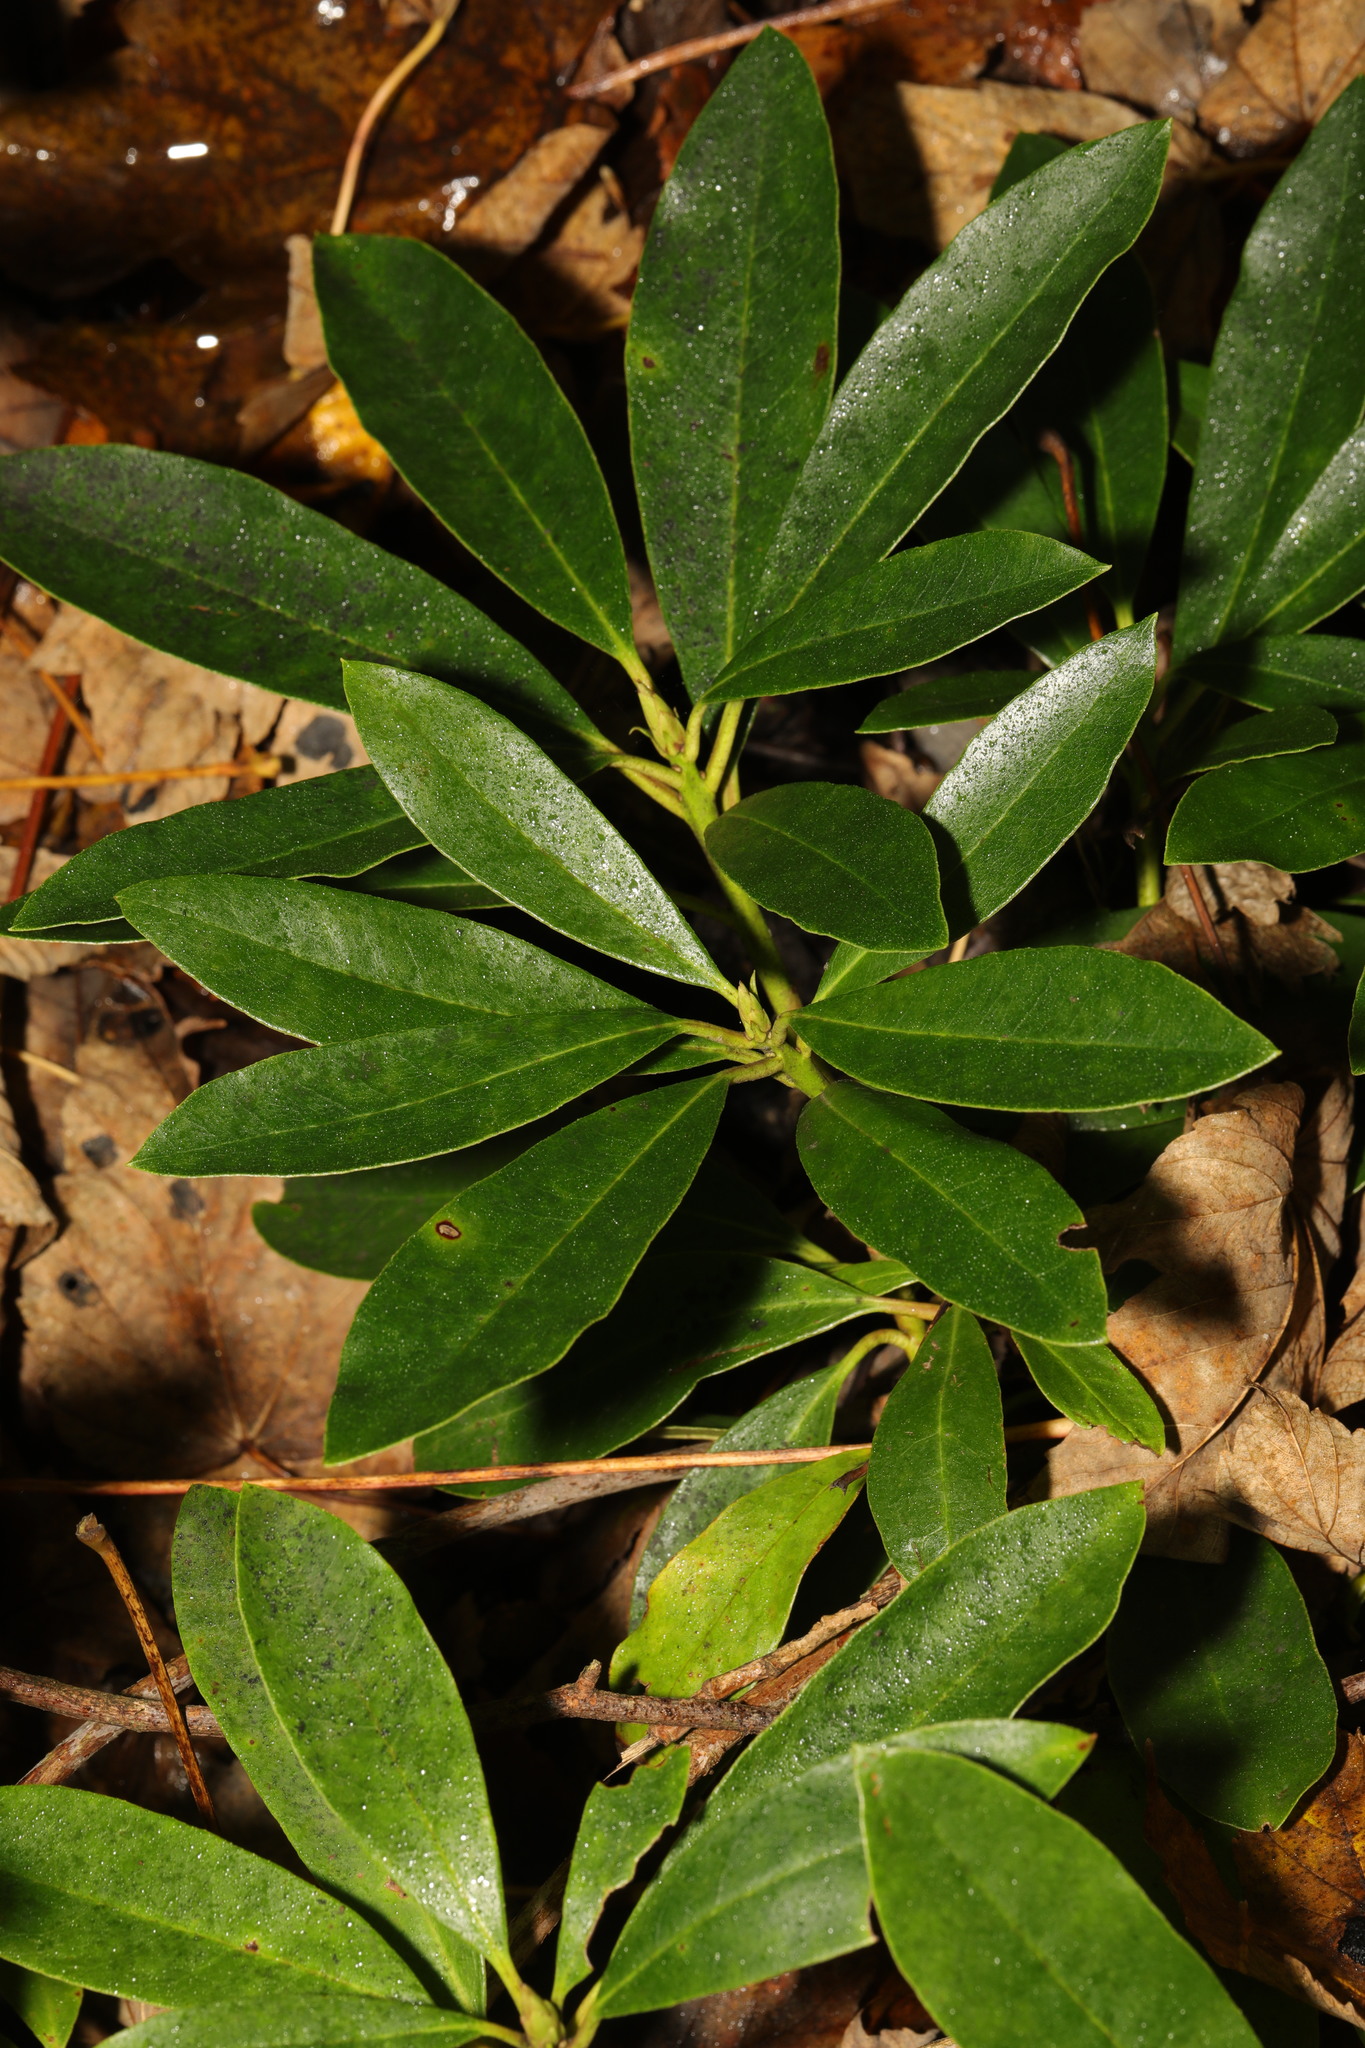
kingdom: Plantae
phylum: Tracheophyta
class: Magnoliopsida
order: Ericales
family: Ericaceae
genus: Rhododendron
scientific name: Rhododendron ponticum
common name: Rhododendron
